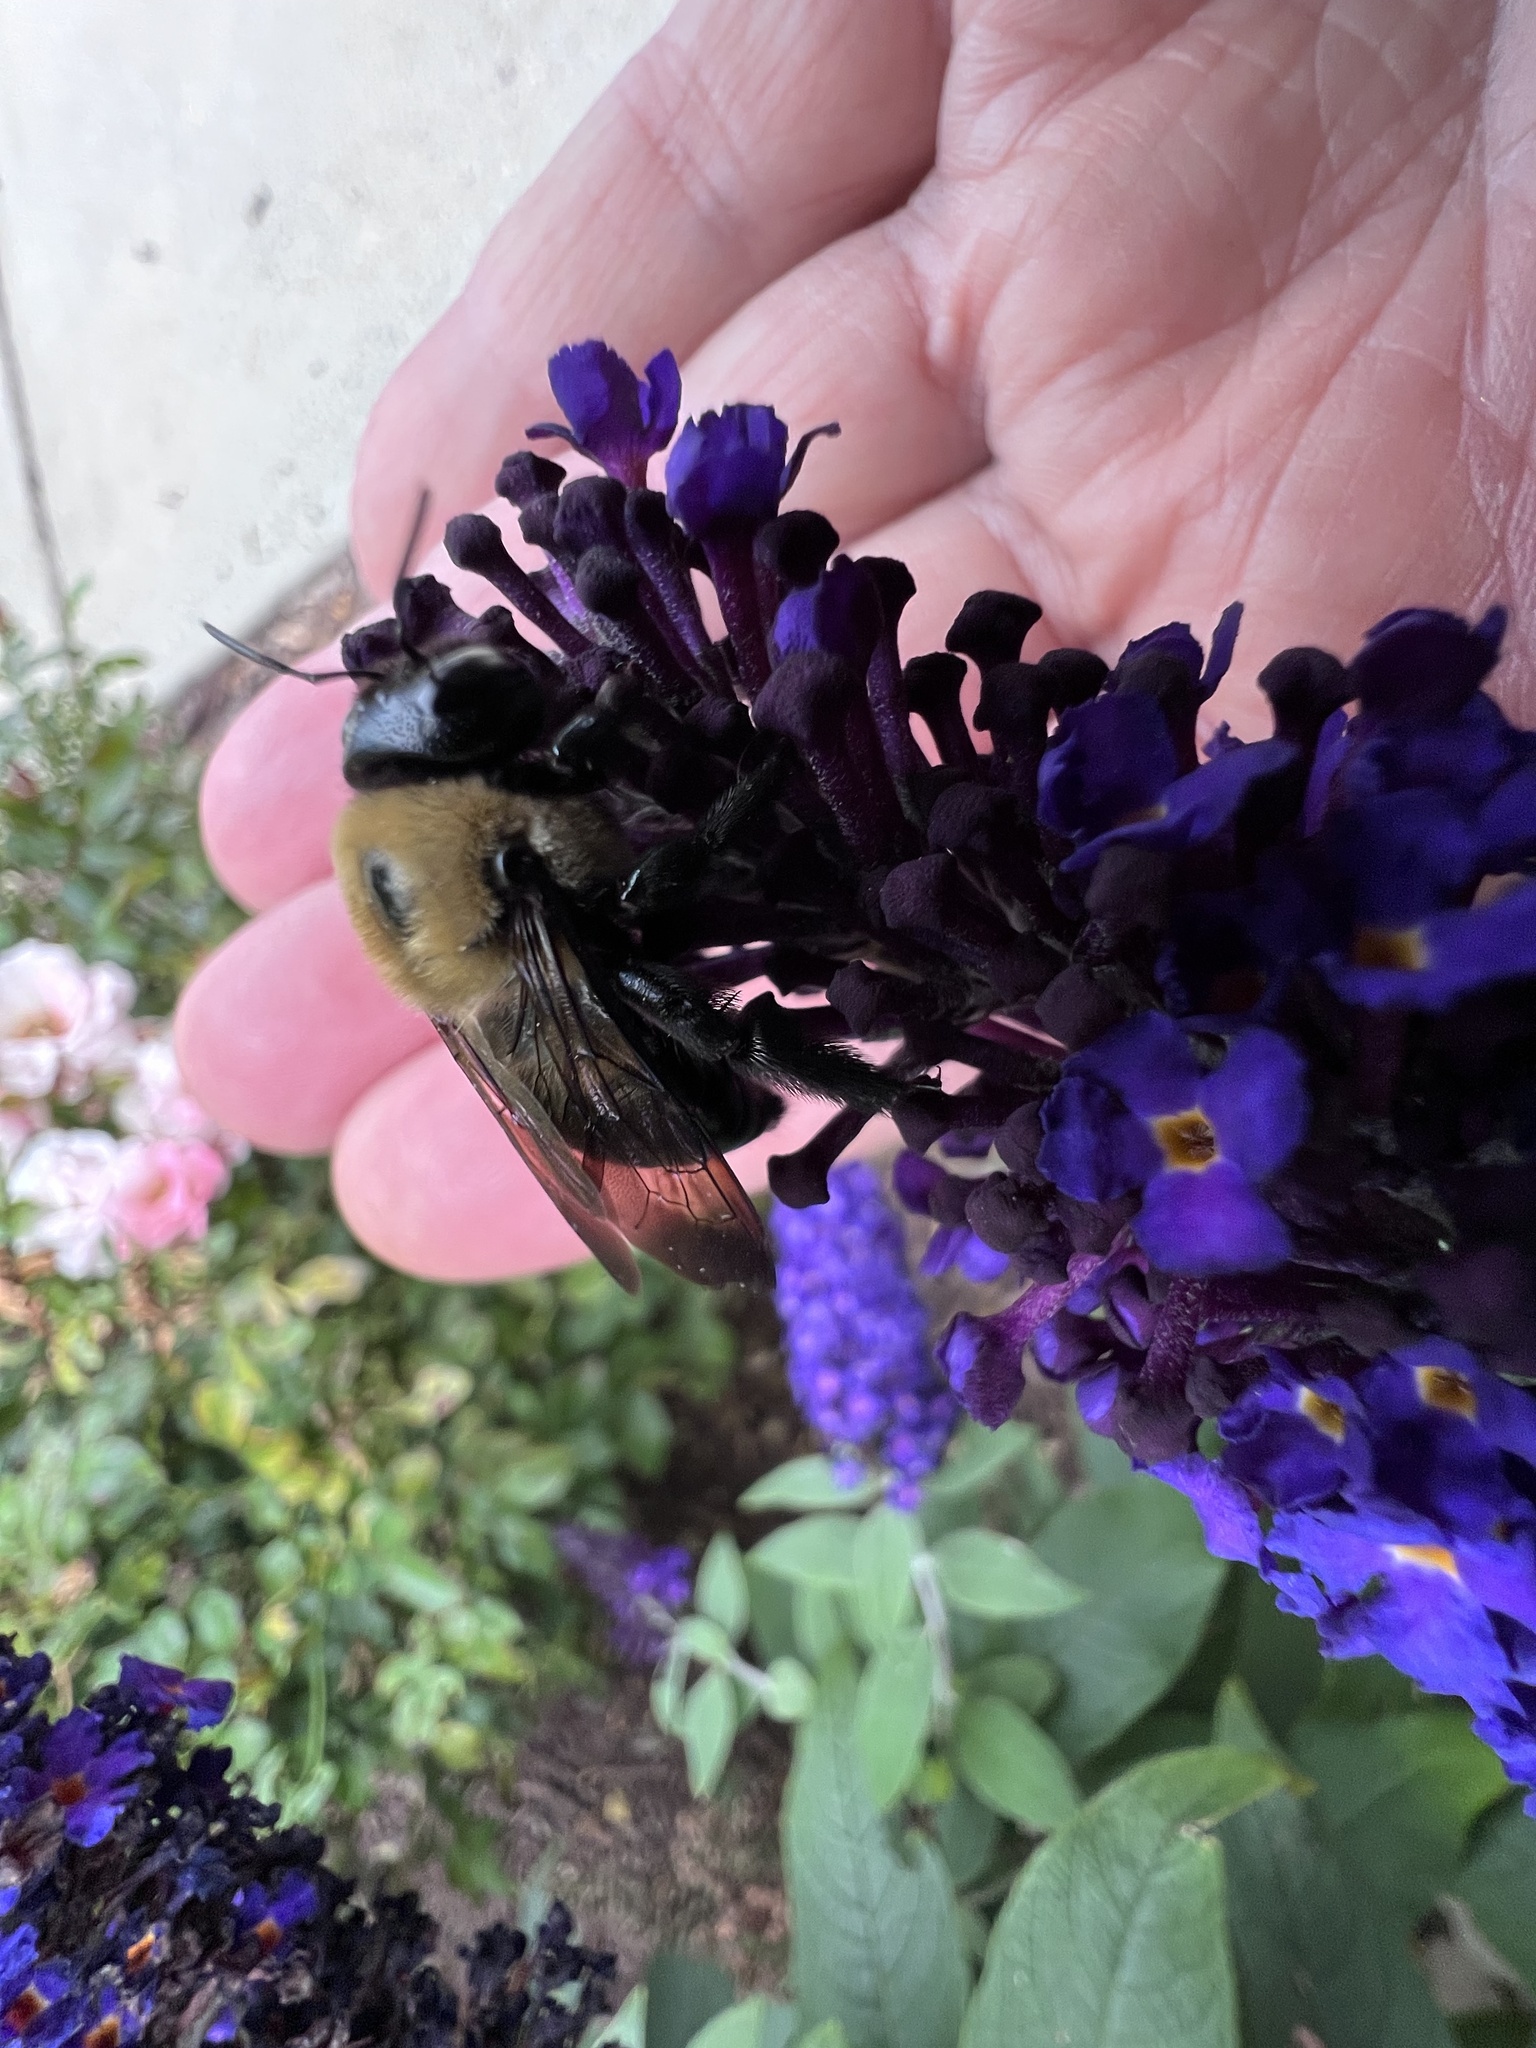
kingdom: Animalia
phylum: Arthropoda
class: Insecta
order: Hymenoptera
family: Apidae
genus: Xylocopa
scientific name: Xylocopa virginica
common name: Carpenter bee
